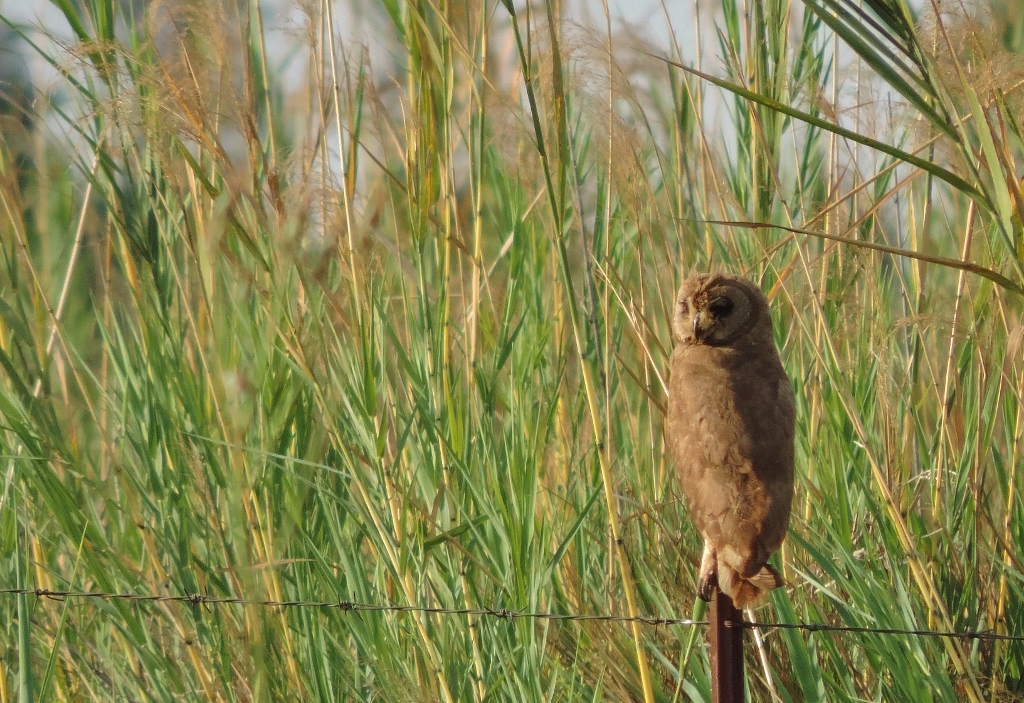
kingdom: Animalia
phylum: Chordata
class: Aves
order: Strigiformes
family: Strigidae
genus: Asio
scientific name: Asio capensis
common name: Marsh owl
